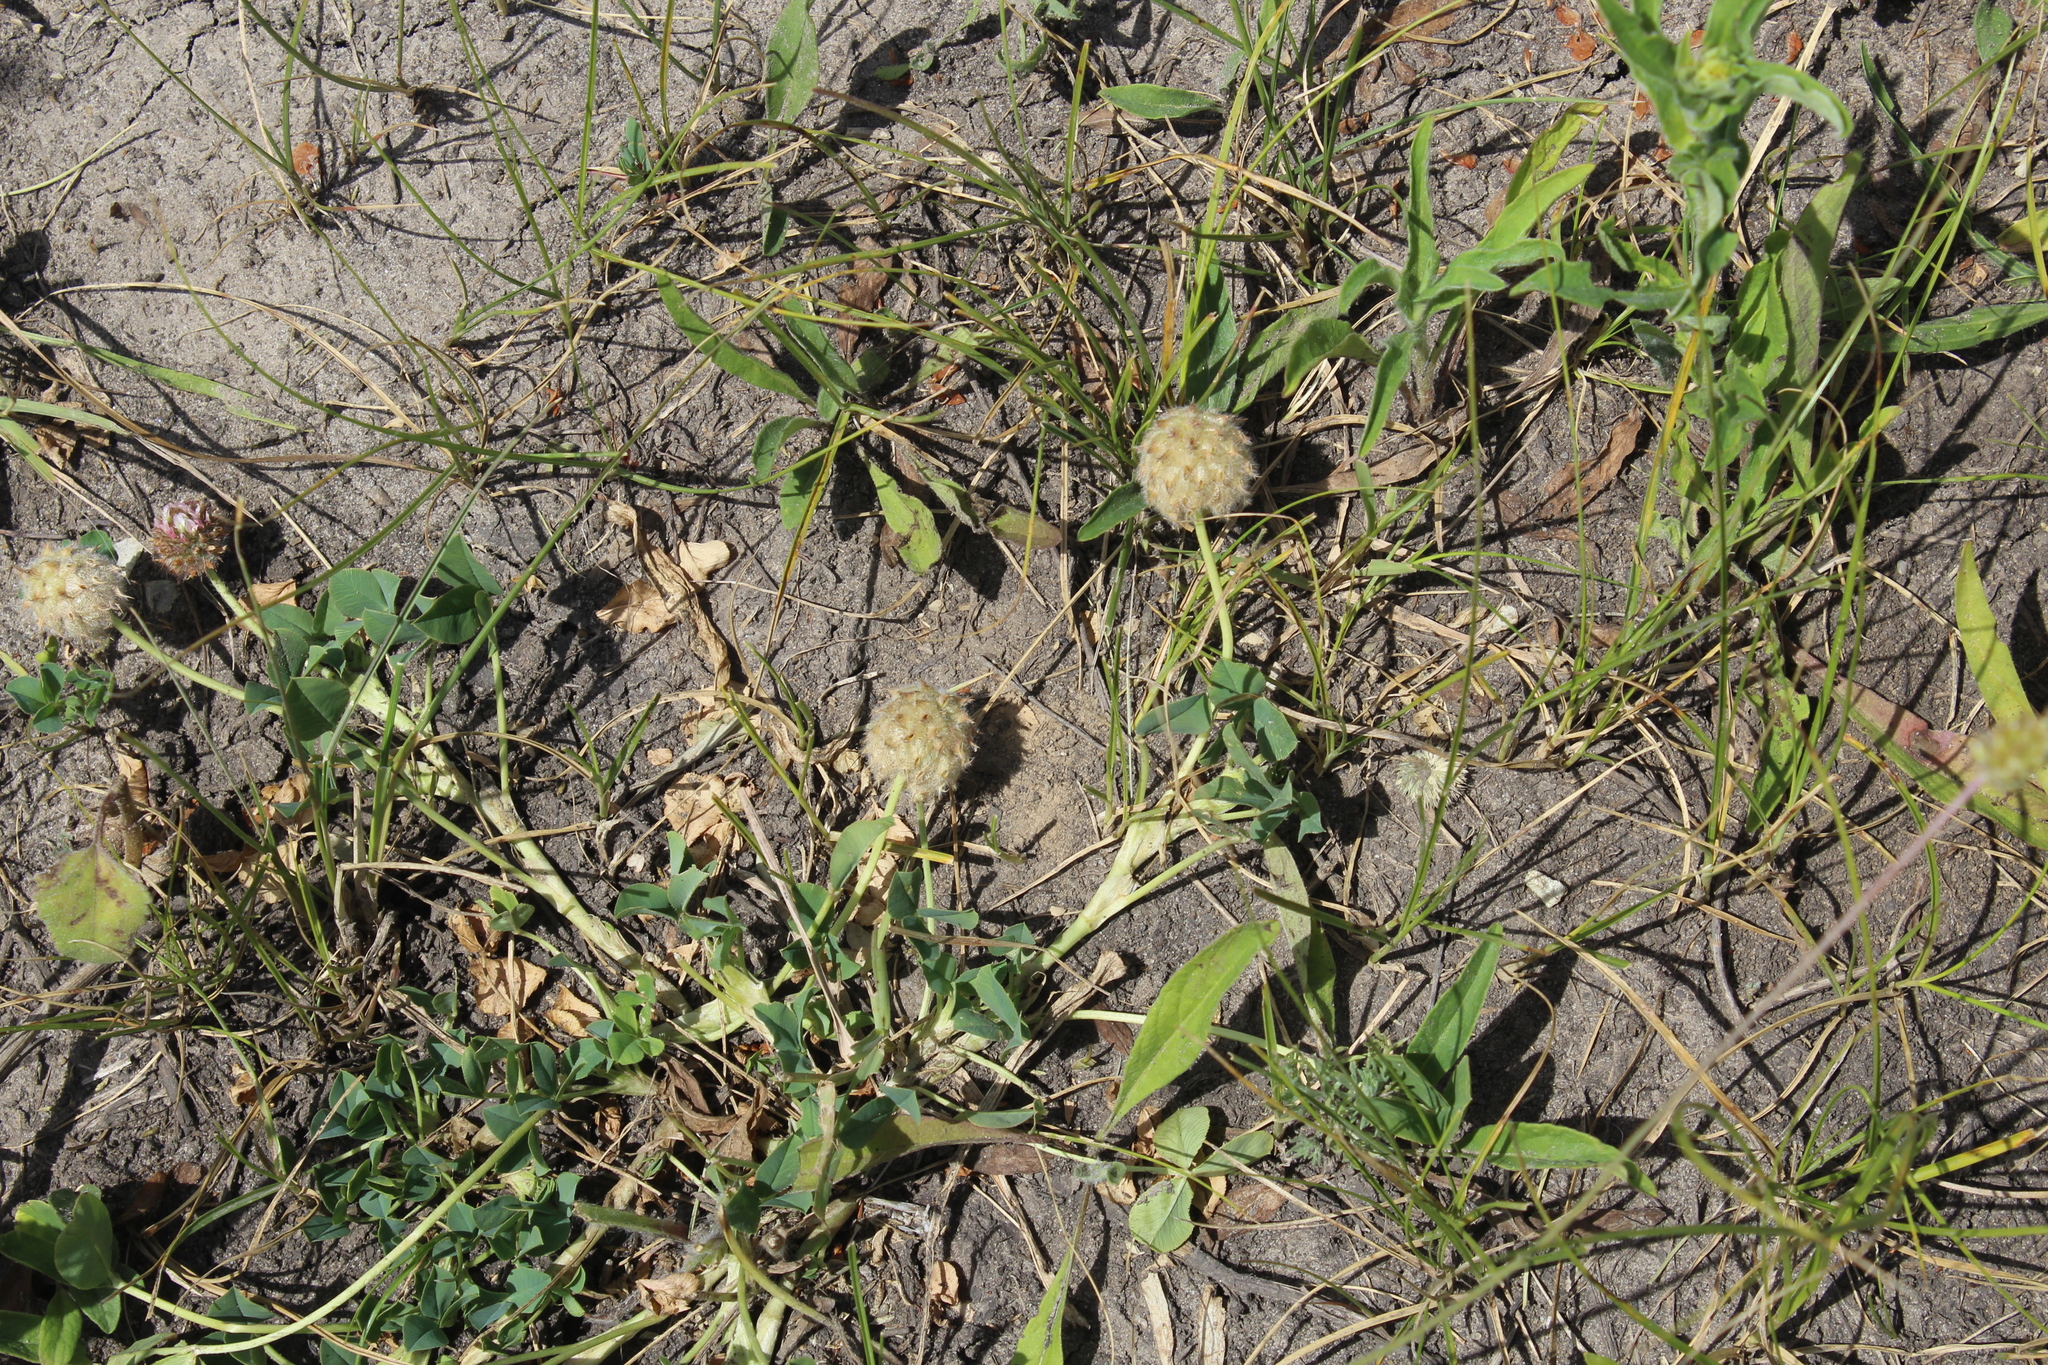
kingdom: Plantae
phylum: Tracheophyta
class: Magnoliopsida
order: Fabales
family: Fabaceae
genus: Trifolium
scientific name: Trifolium fragiferum
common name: Strawberry clover
